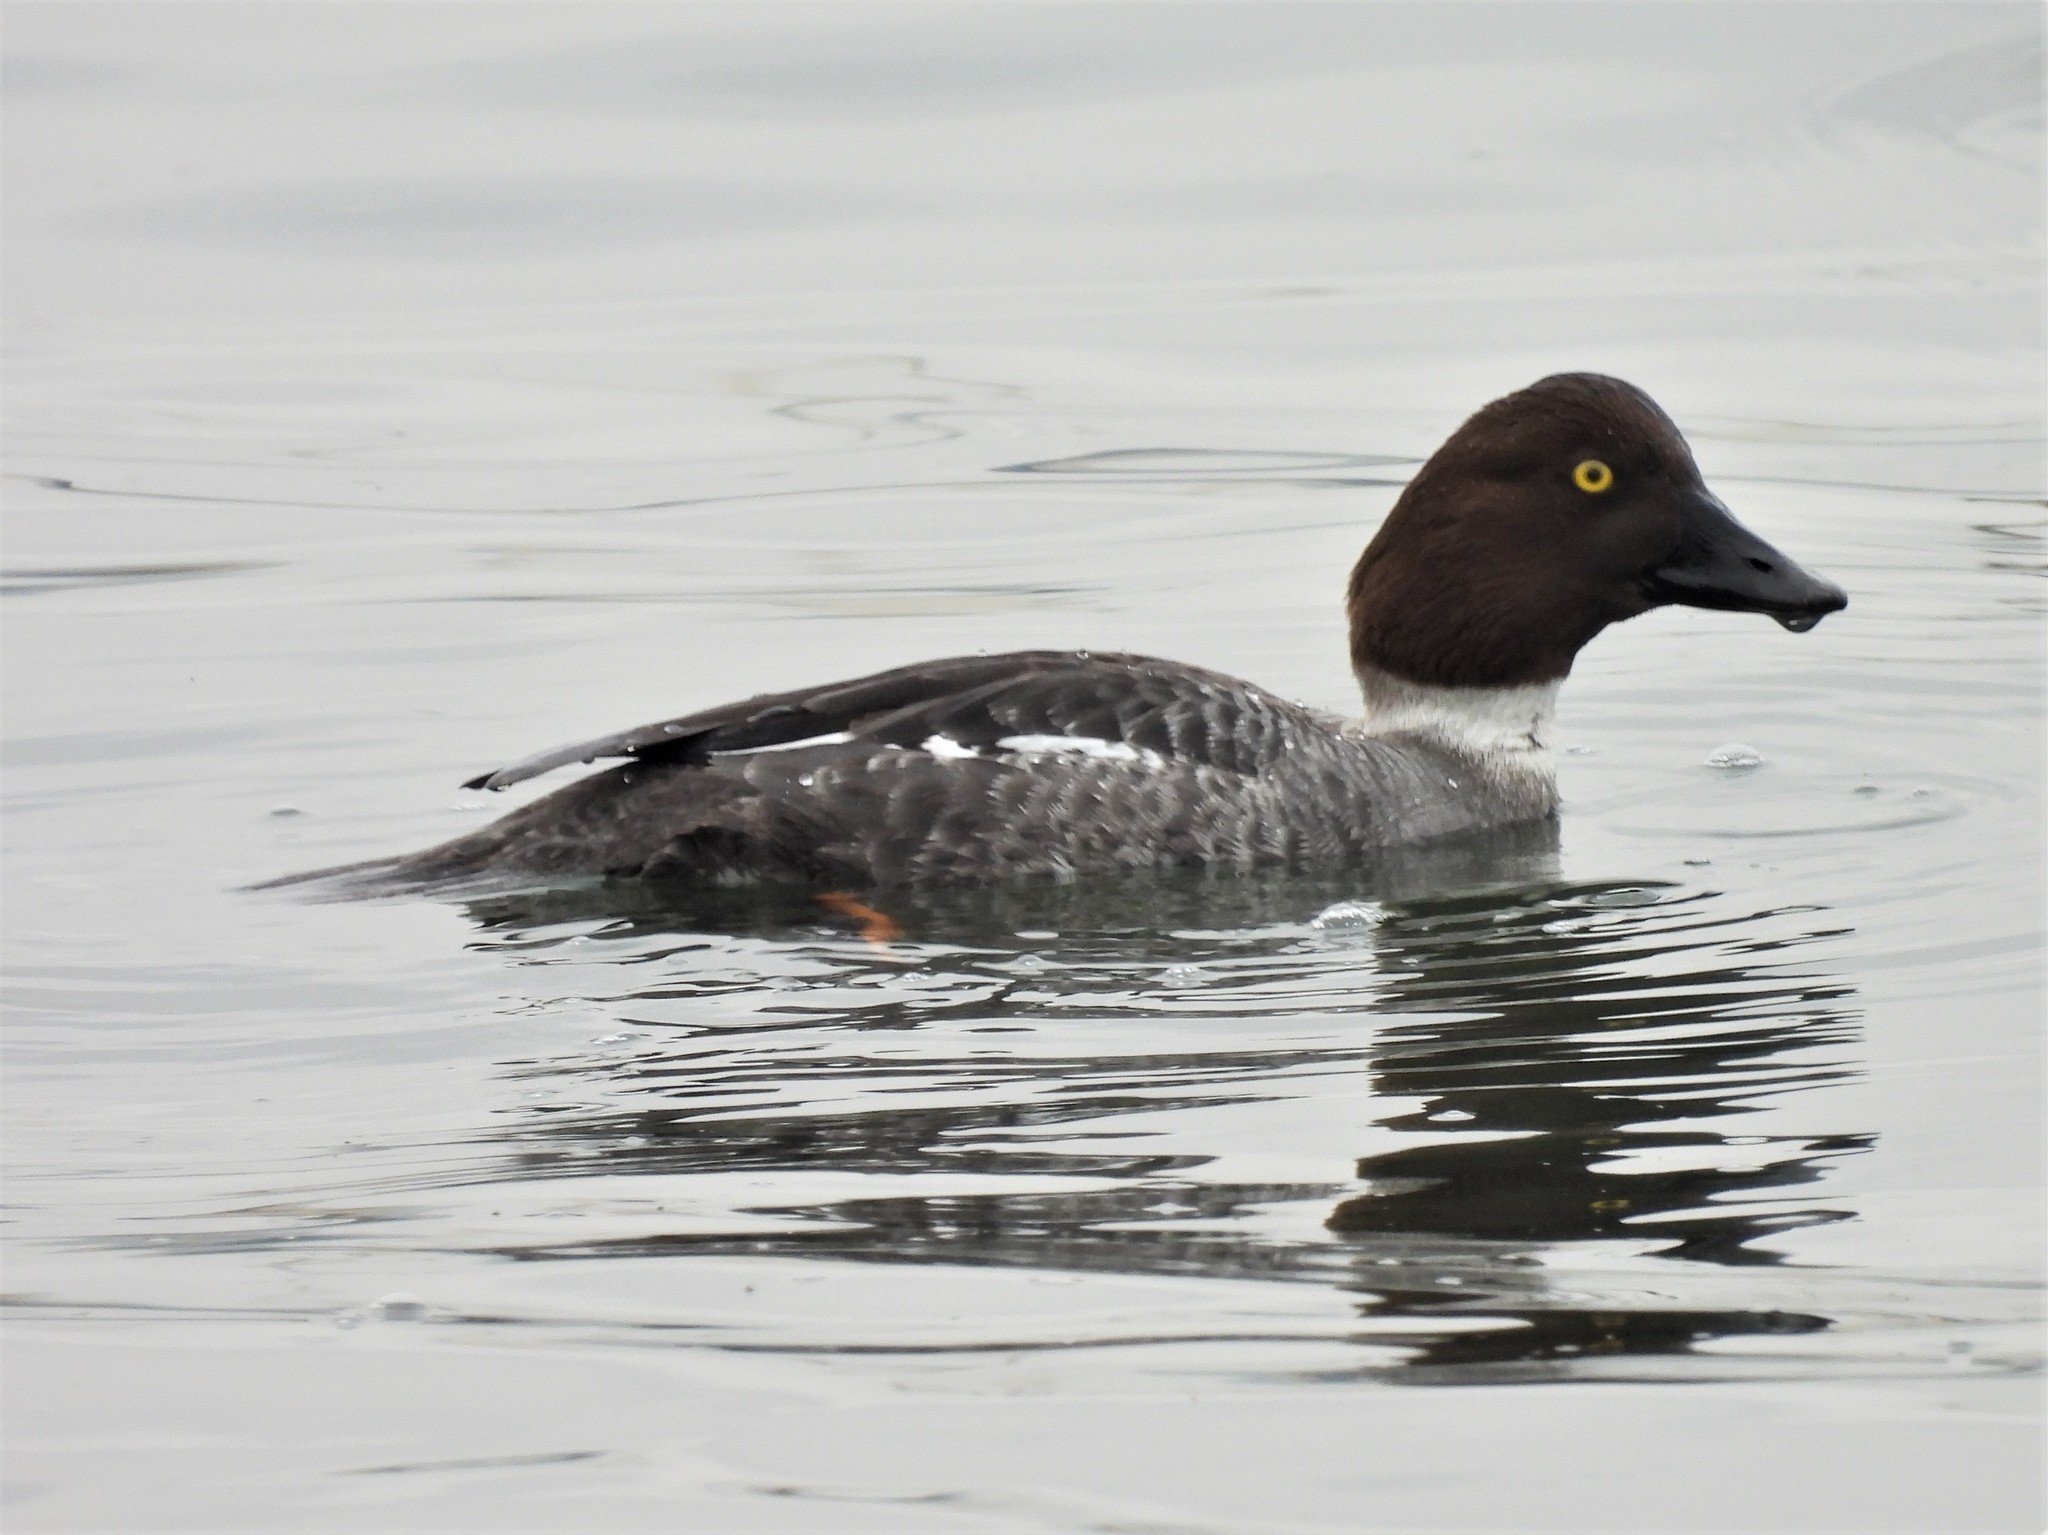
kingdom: Animalia
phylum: Chordata
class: Aves
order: Anseriformes
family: Anatidae
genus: Bucephala
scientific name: Bucephala clangula
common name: Common goldeneye
